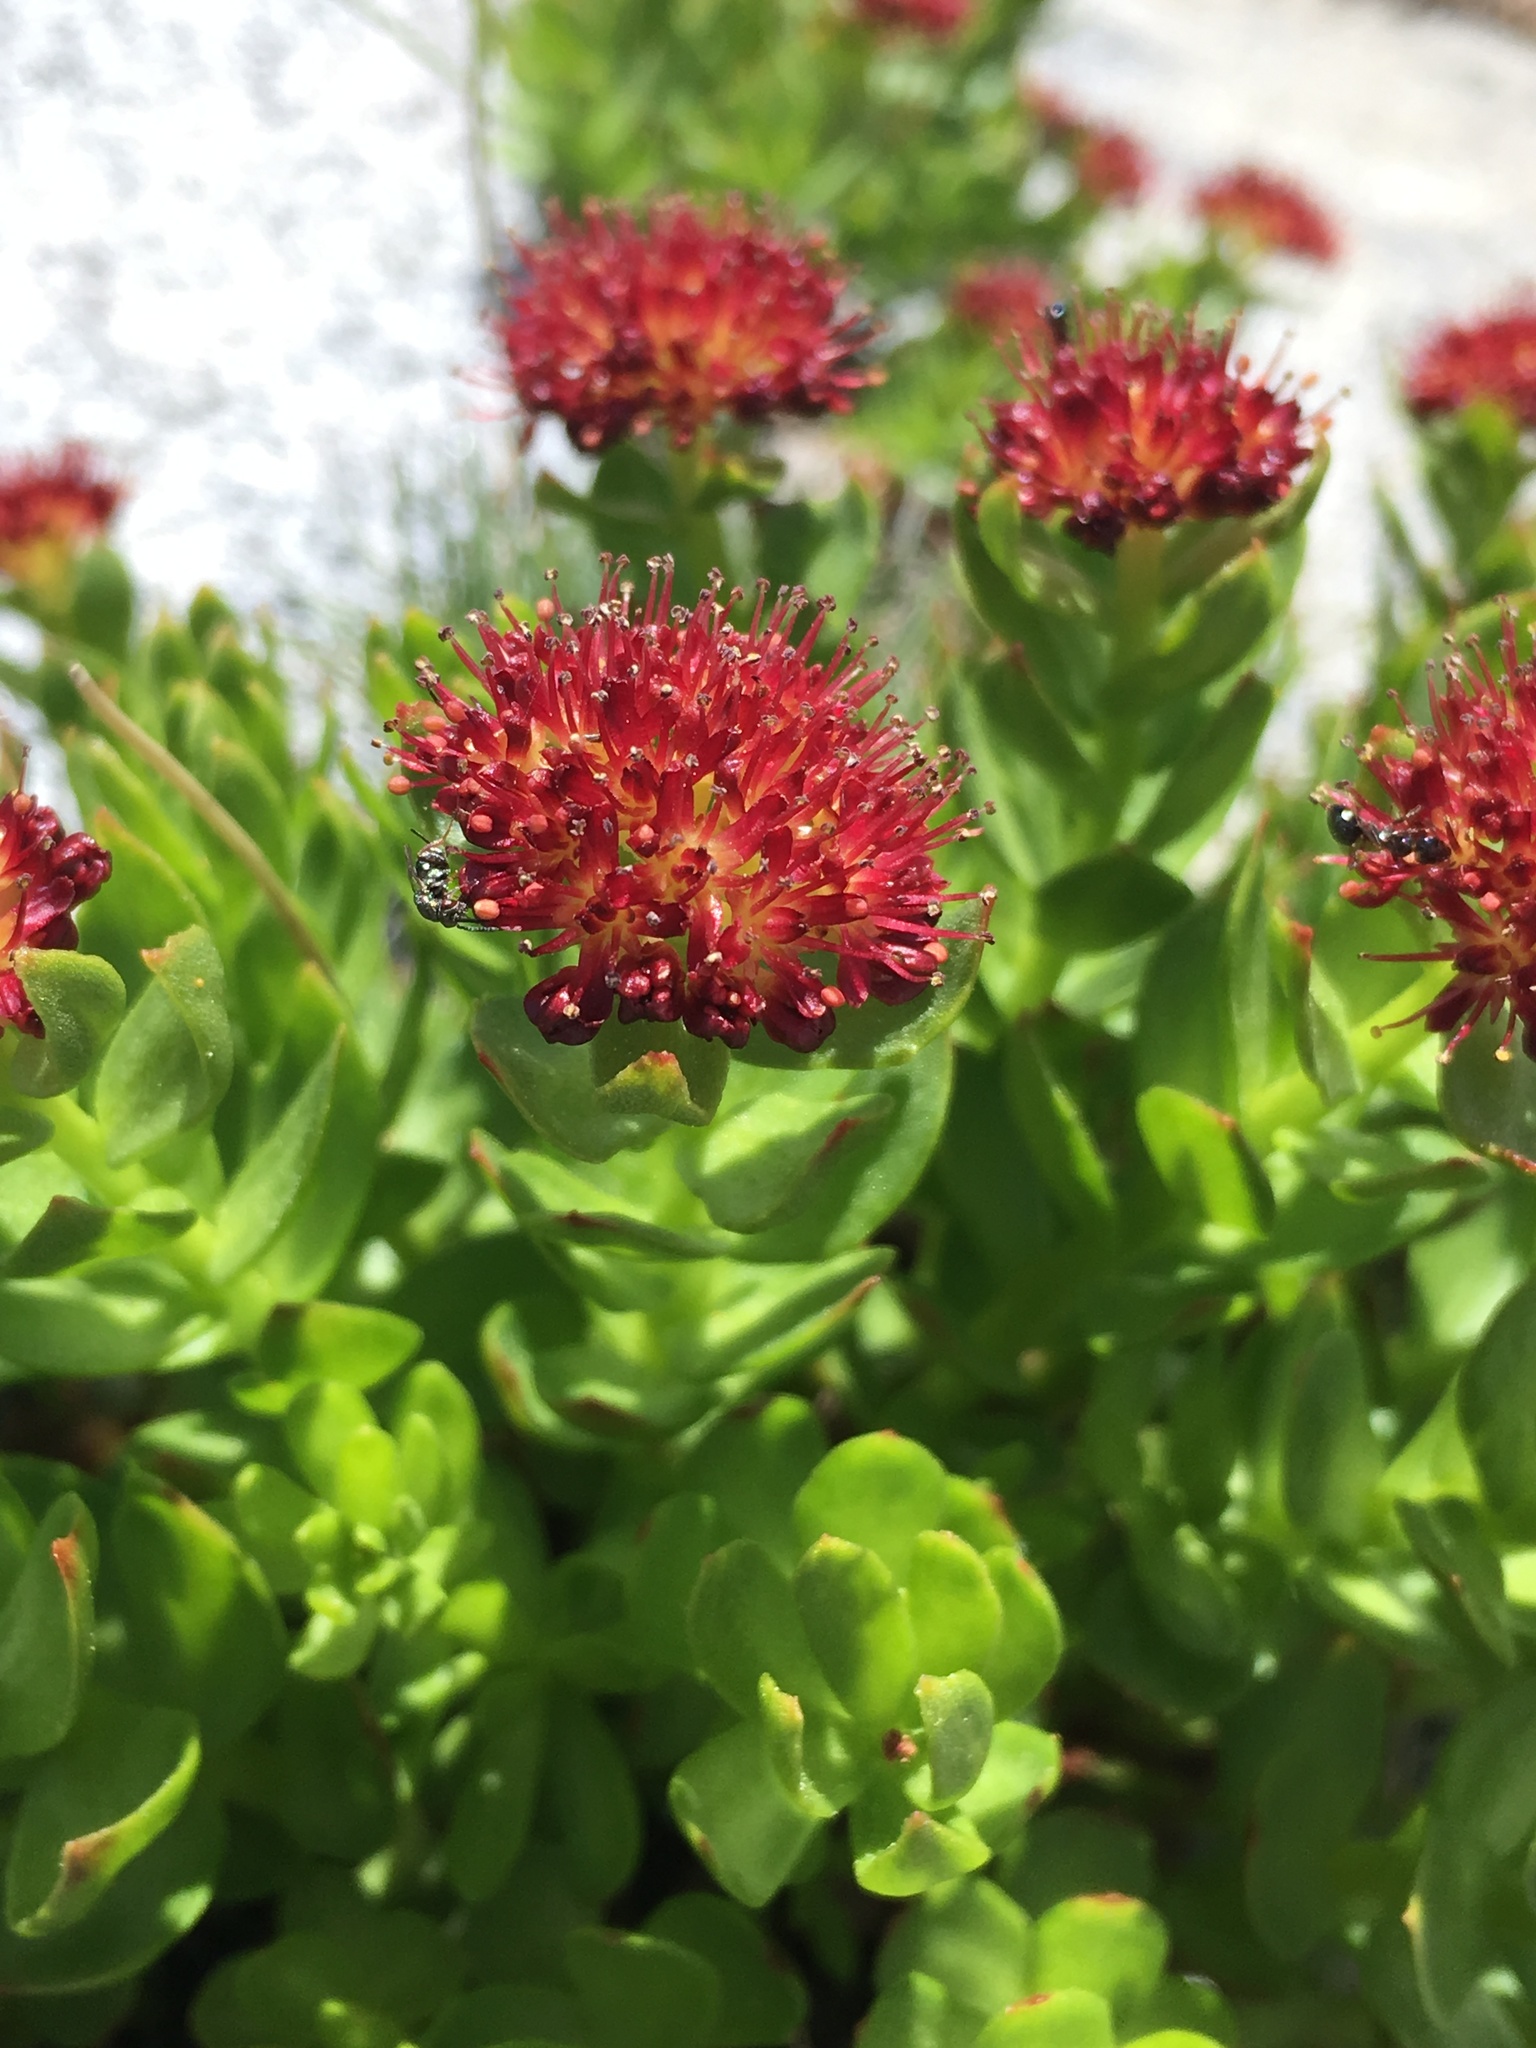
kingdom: Plantae
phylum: Tracheophyta
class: Magnoliopsida
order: Saxifragales
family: Crassulaceae
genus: Rhodiola
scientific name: Rhodiola integrifolia
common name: Western roseroot
